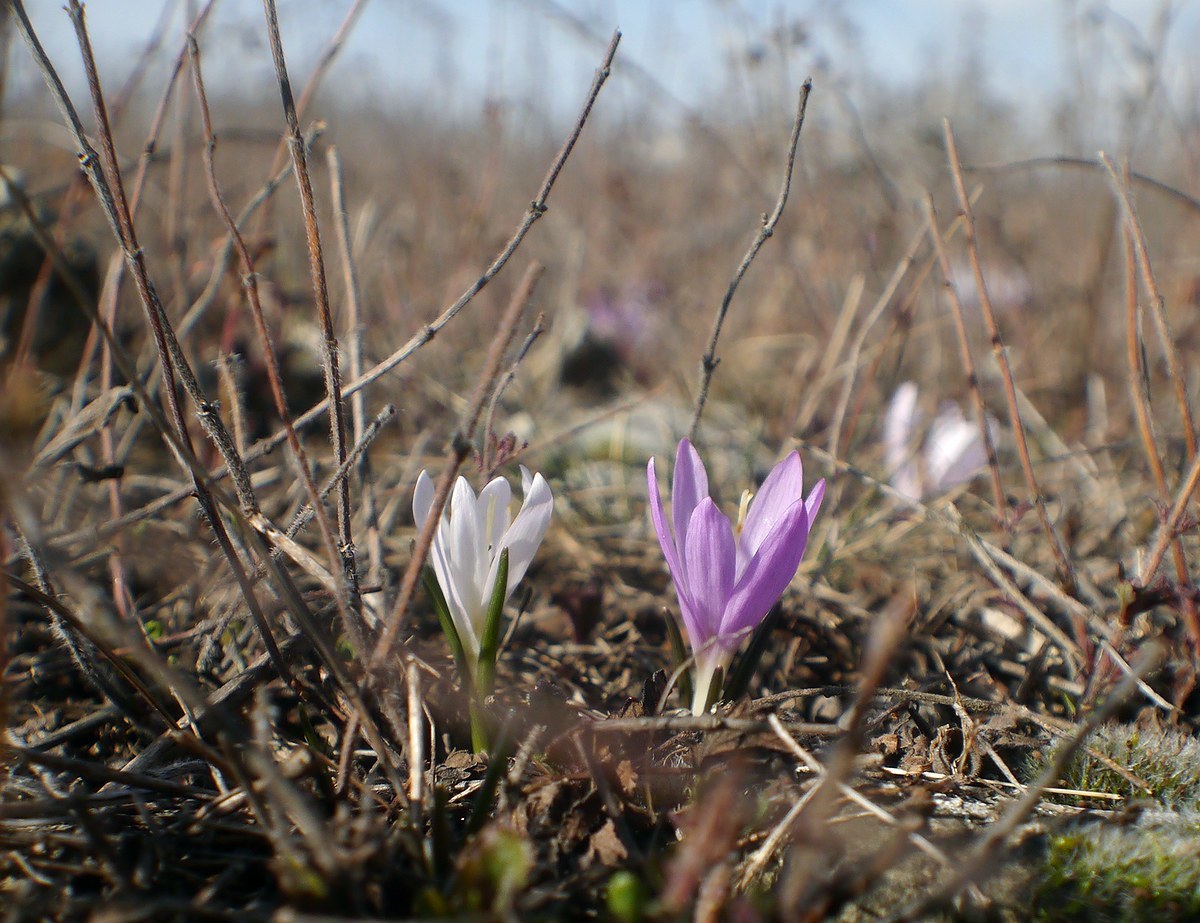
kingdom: Plantae
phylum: Tracheophyta
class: Liliopsida
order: Liliales
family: Colchicaceae
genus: Colchicum
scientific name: Colchicum bulbocodium
